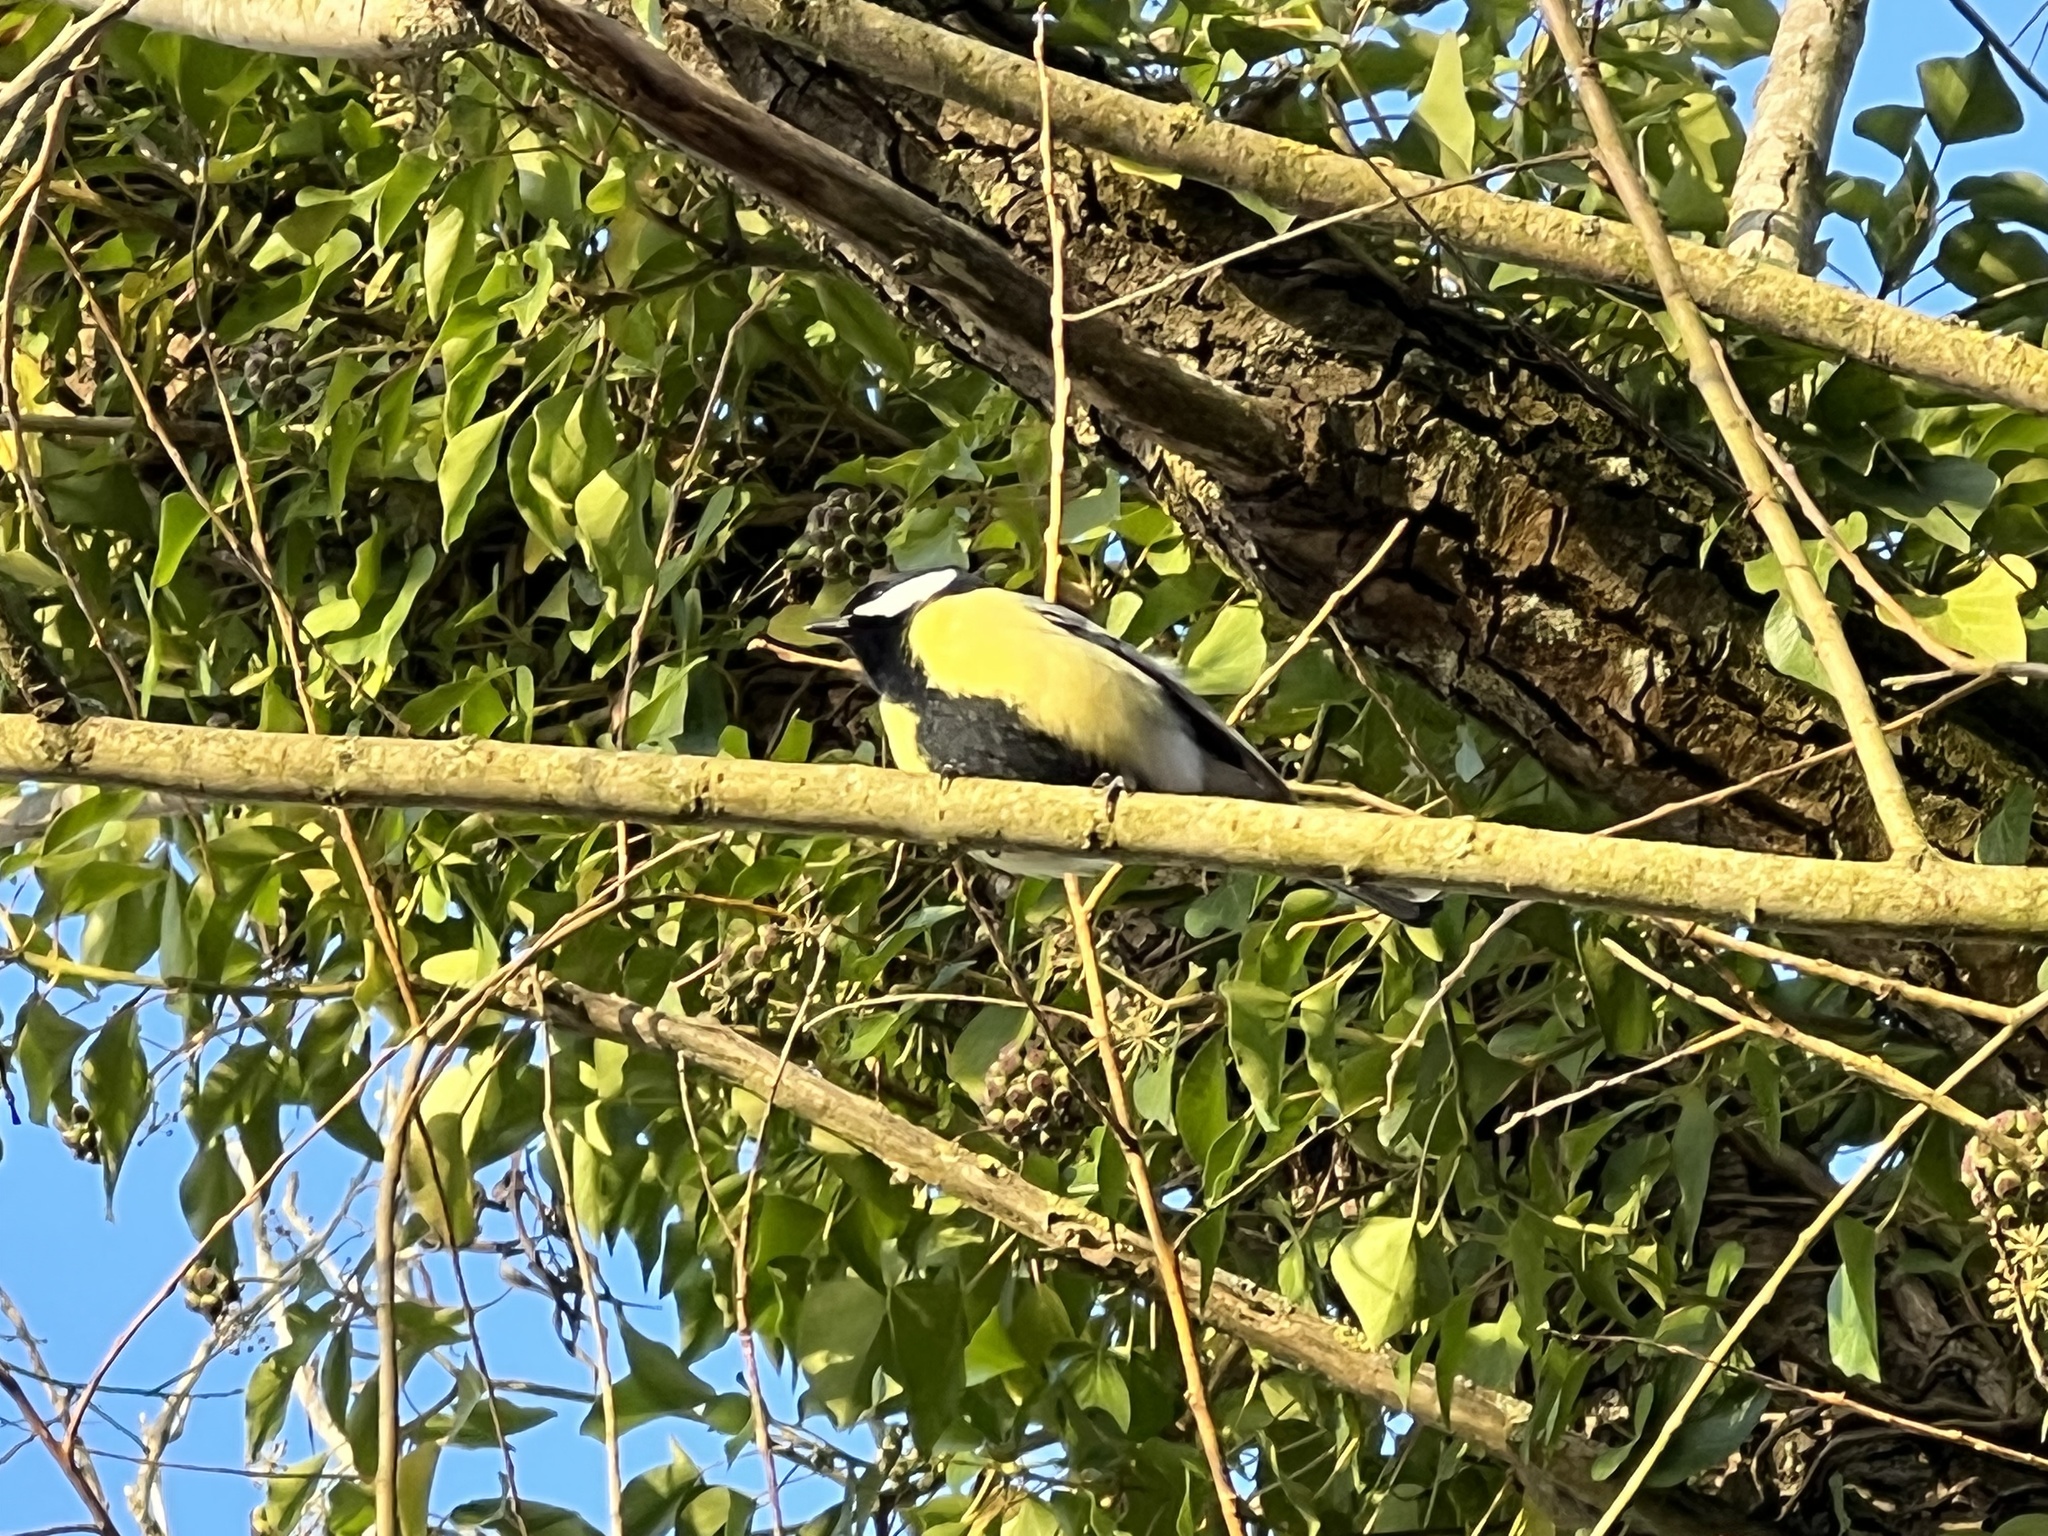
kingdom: Animalia
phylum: Chordata
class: Aves
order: Passeriformes
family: Paridae
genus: Parus
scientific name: Parus major
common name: Great tit
